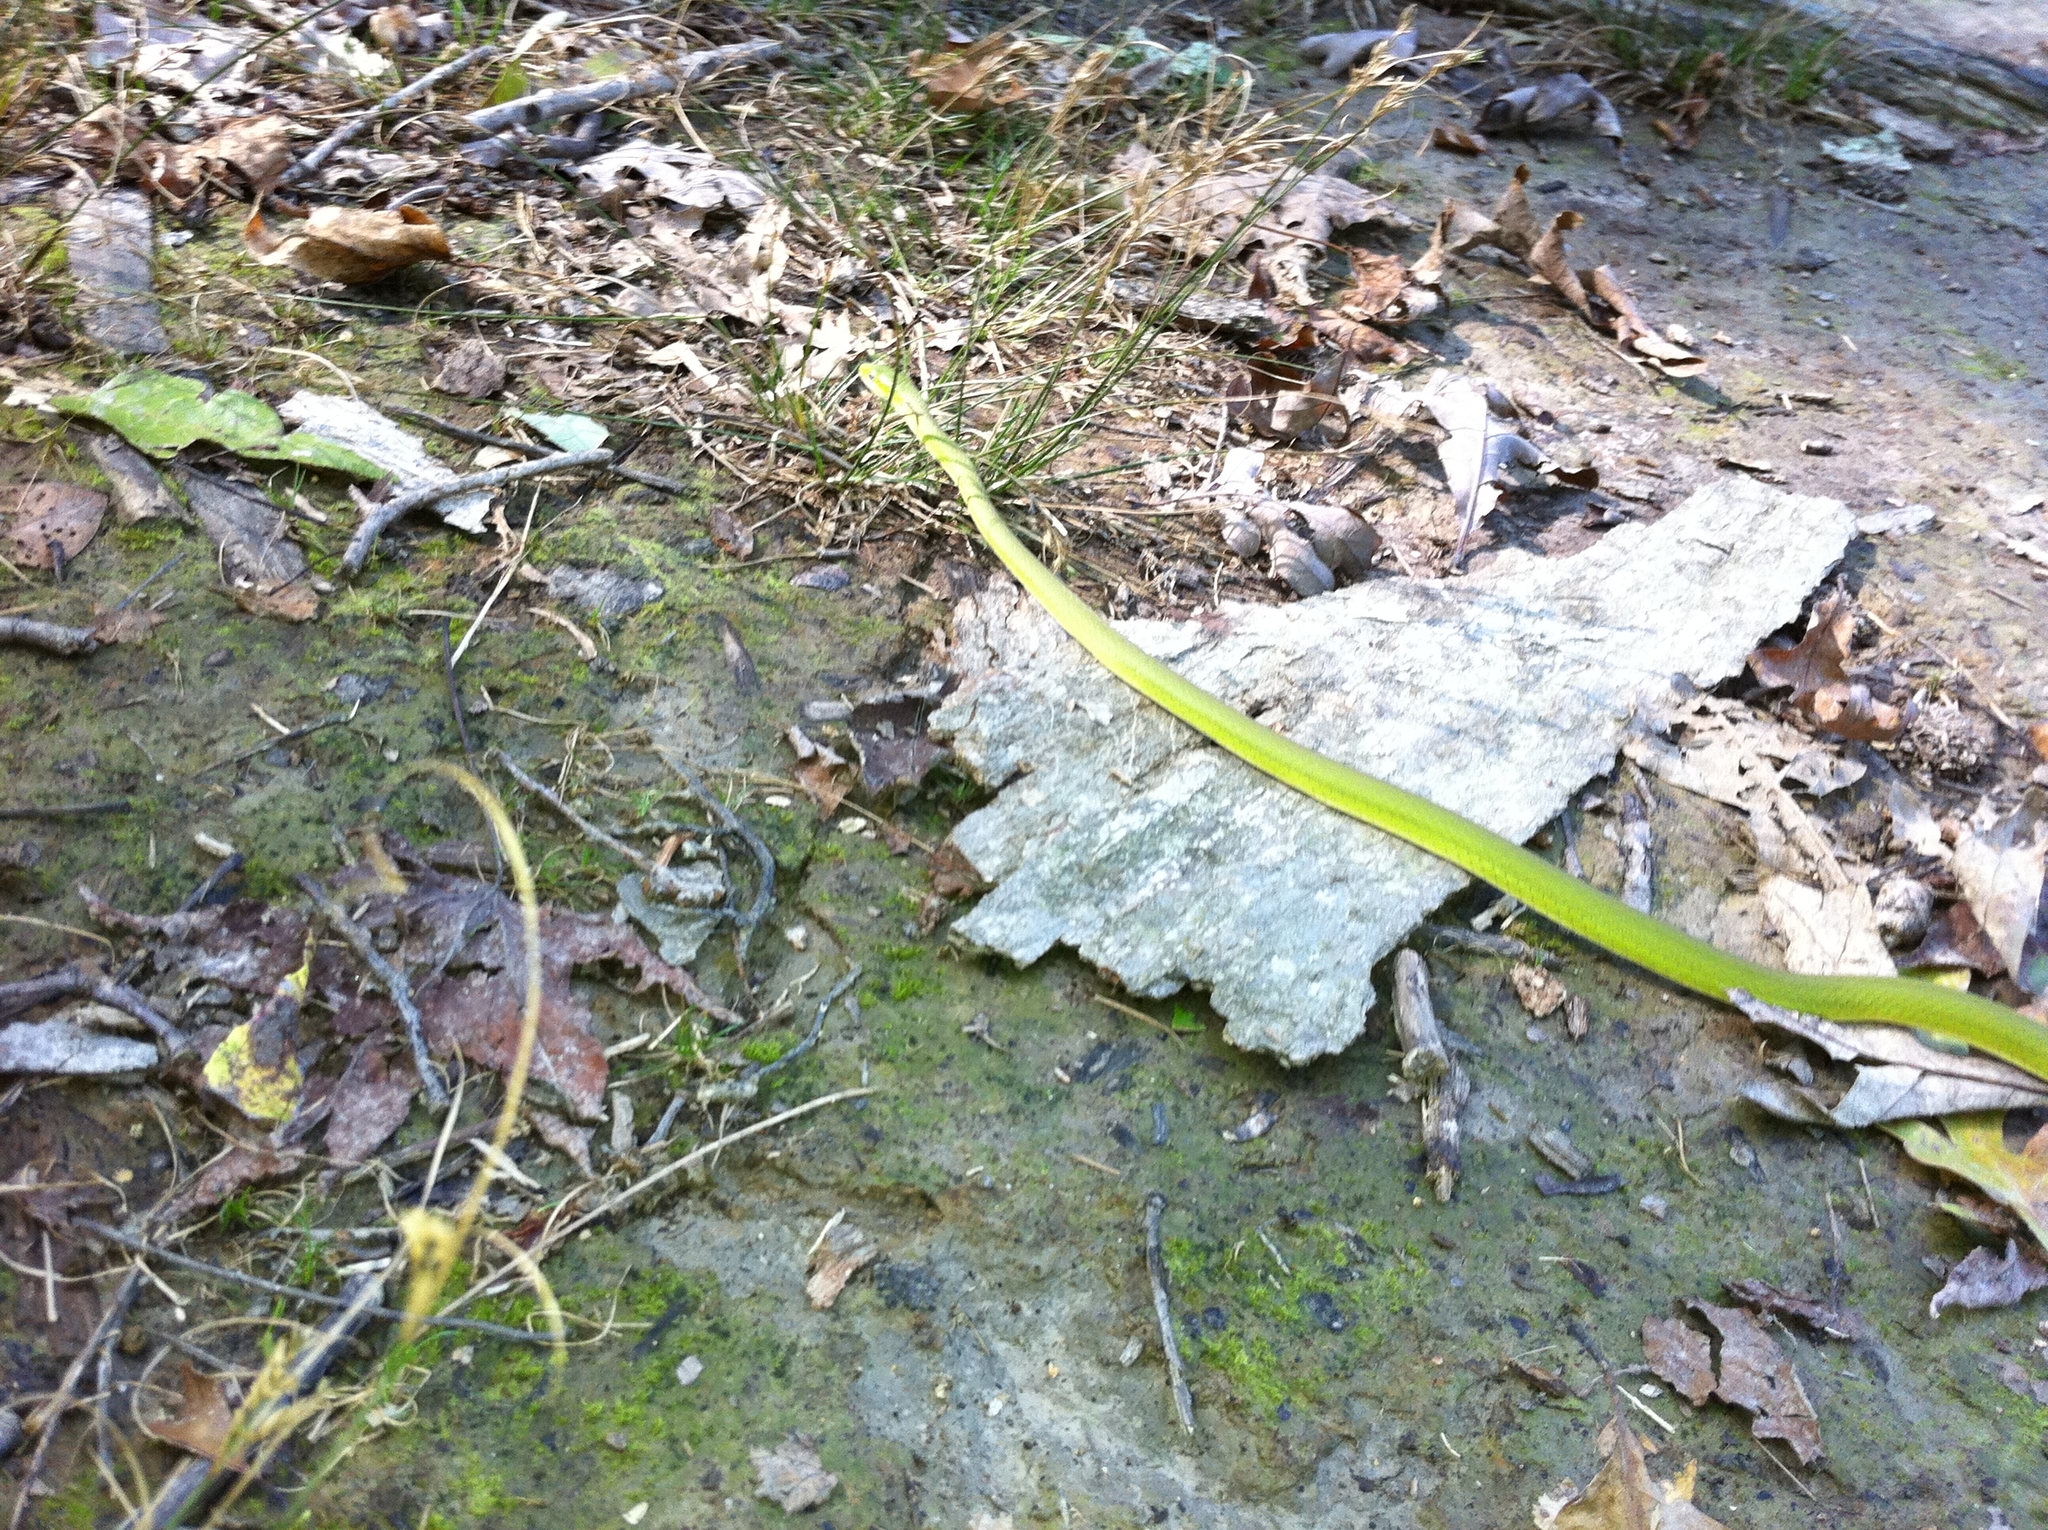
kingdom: Animalia
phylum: Chordata
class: Squamata
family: Colubridae
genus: Opheodrys
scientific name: Opheodrys aestivus
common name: Rough greensnake
